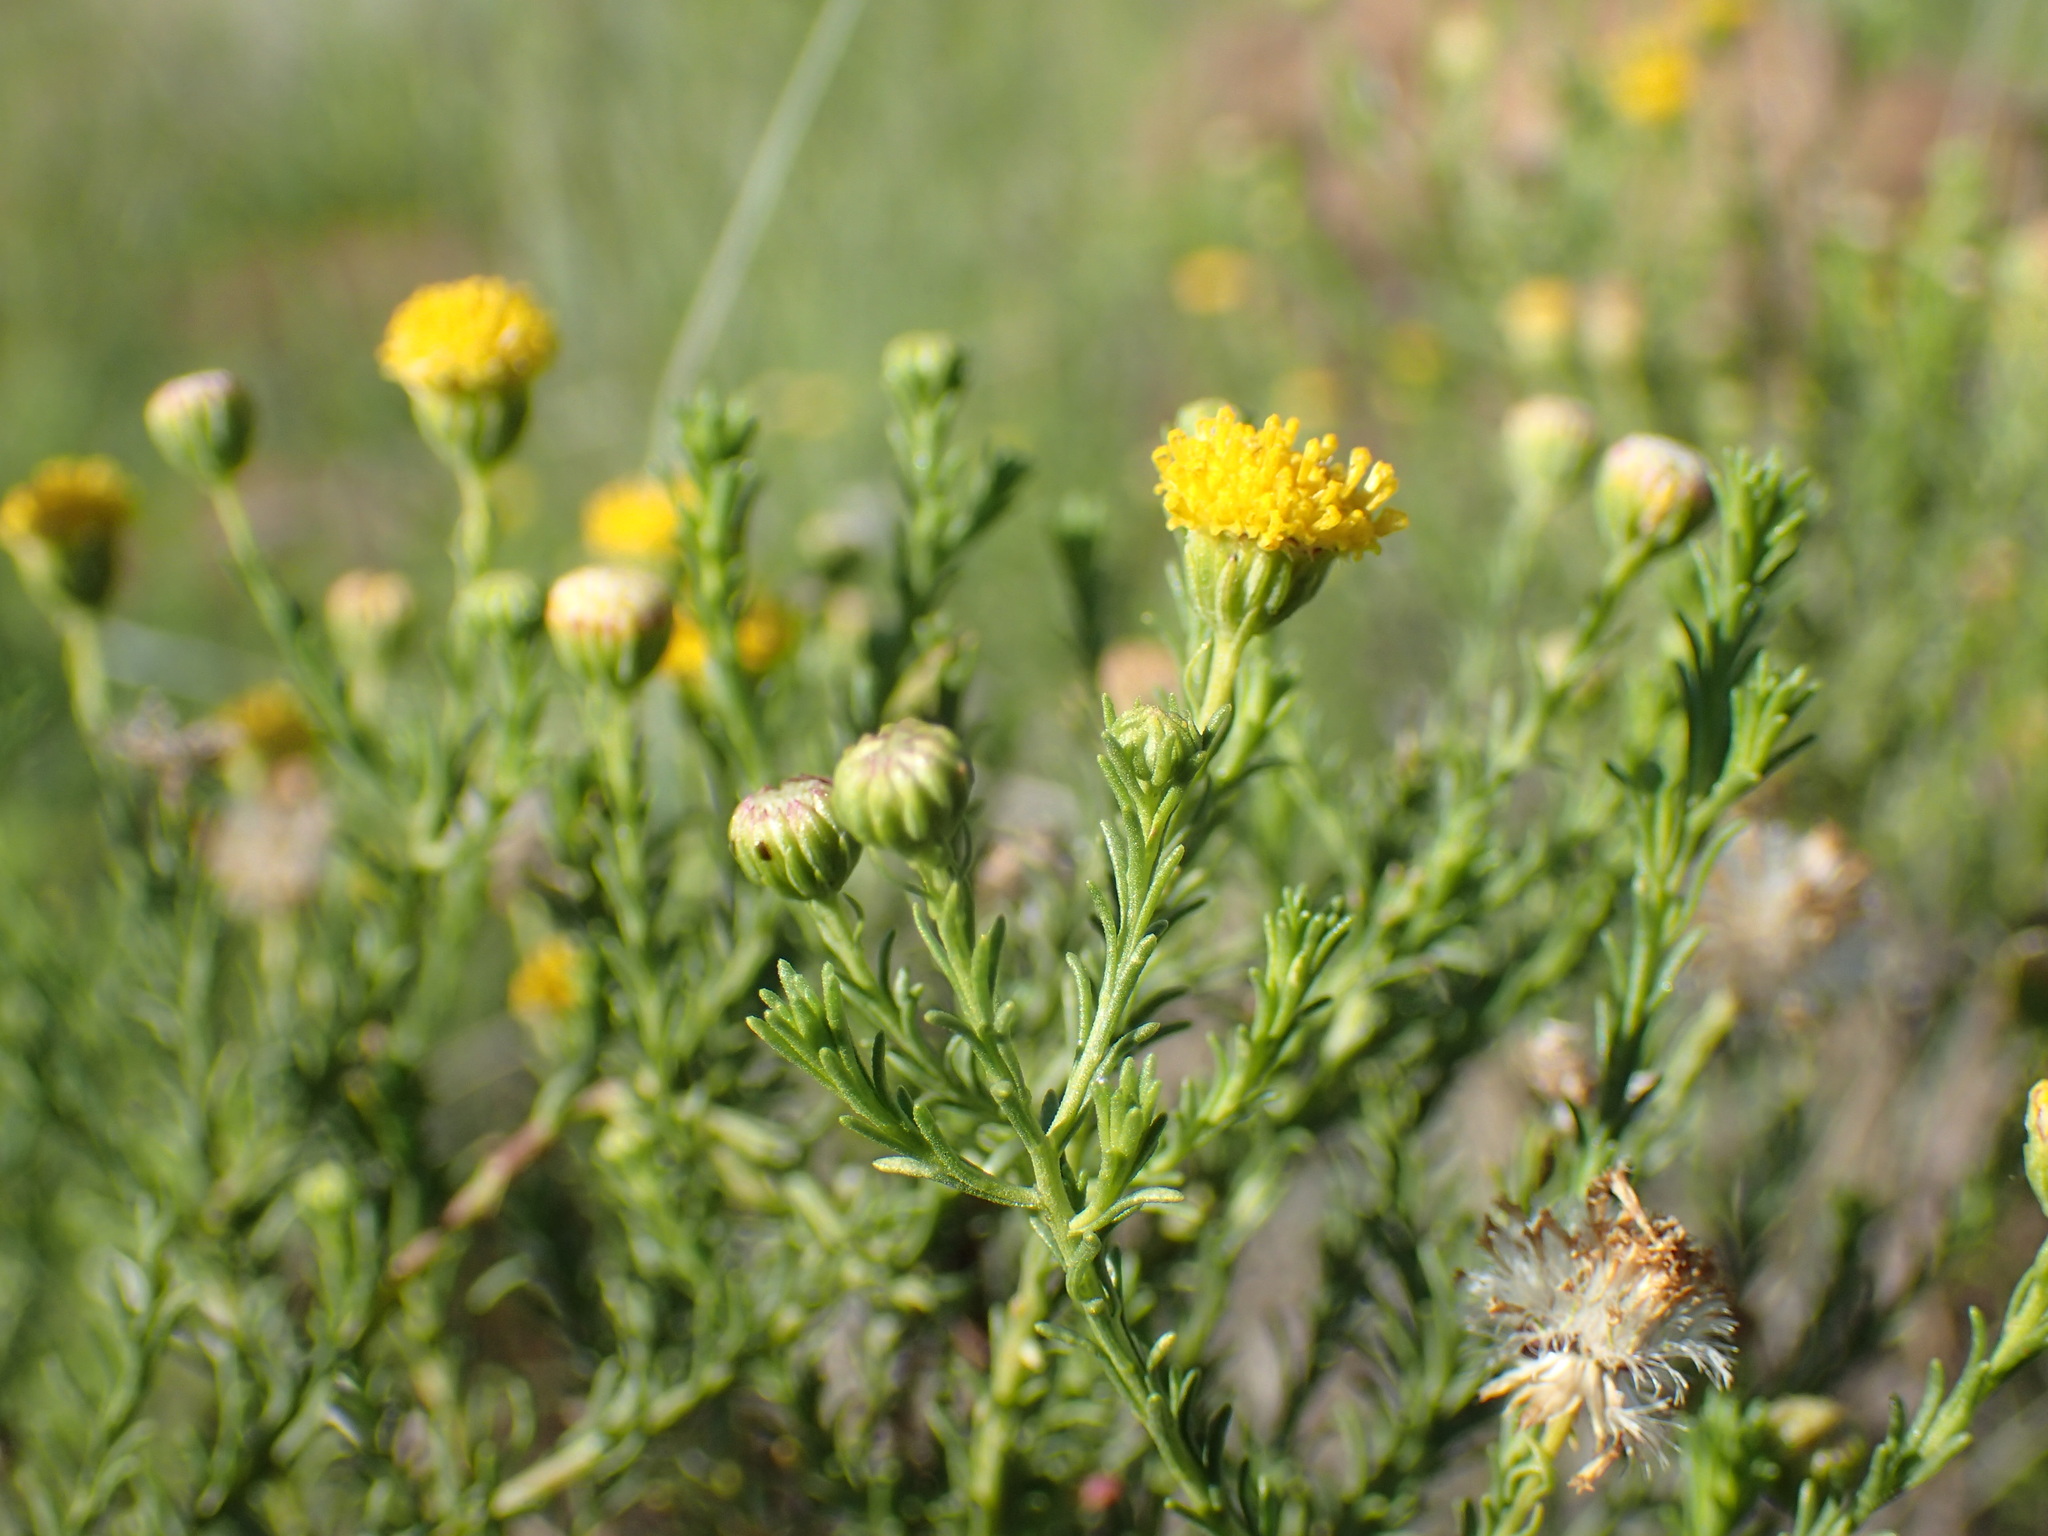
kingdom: Plantae
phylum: Tracheophyta
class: Magnoliopsida
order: Asterales
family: Asteraceae
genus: Chrysocoma
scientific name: Chrysocoma ciliata
